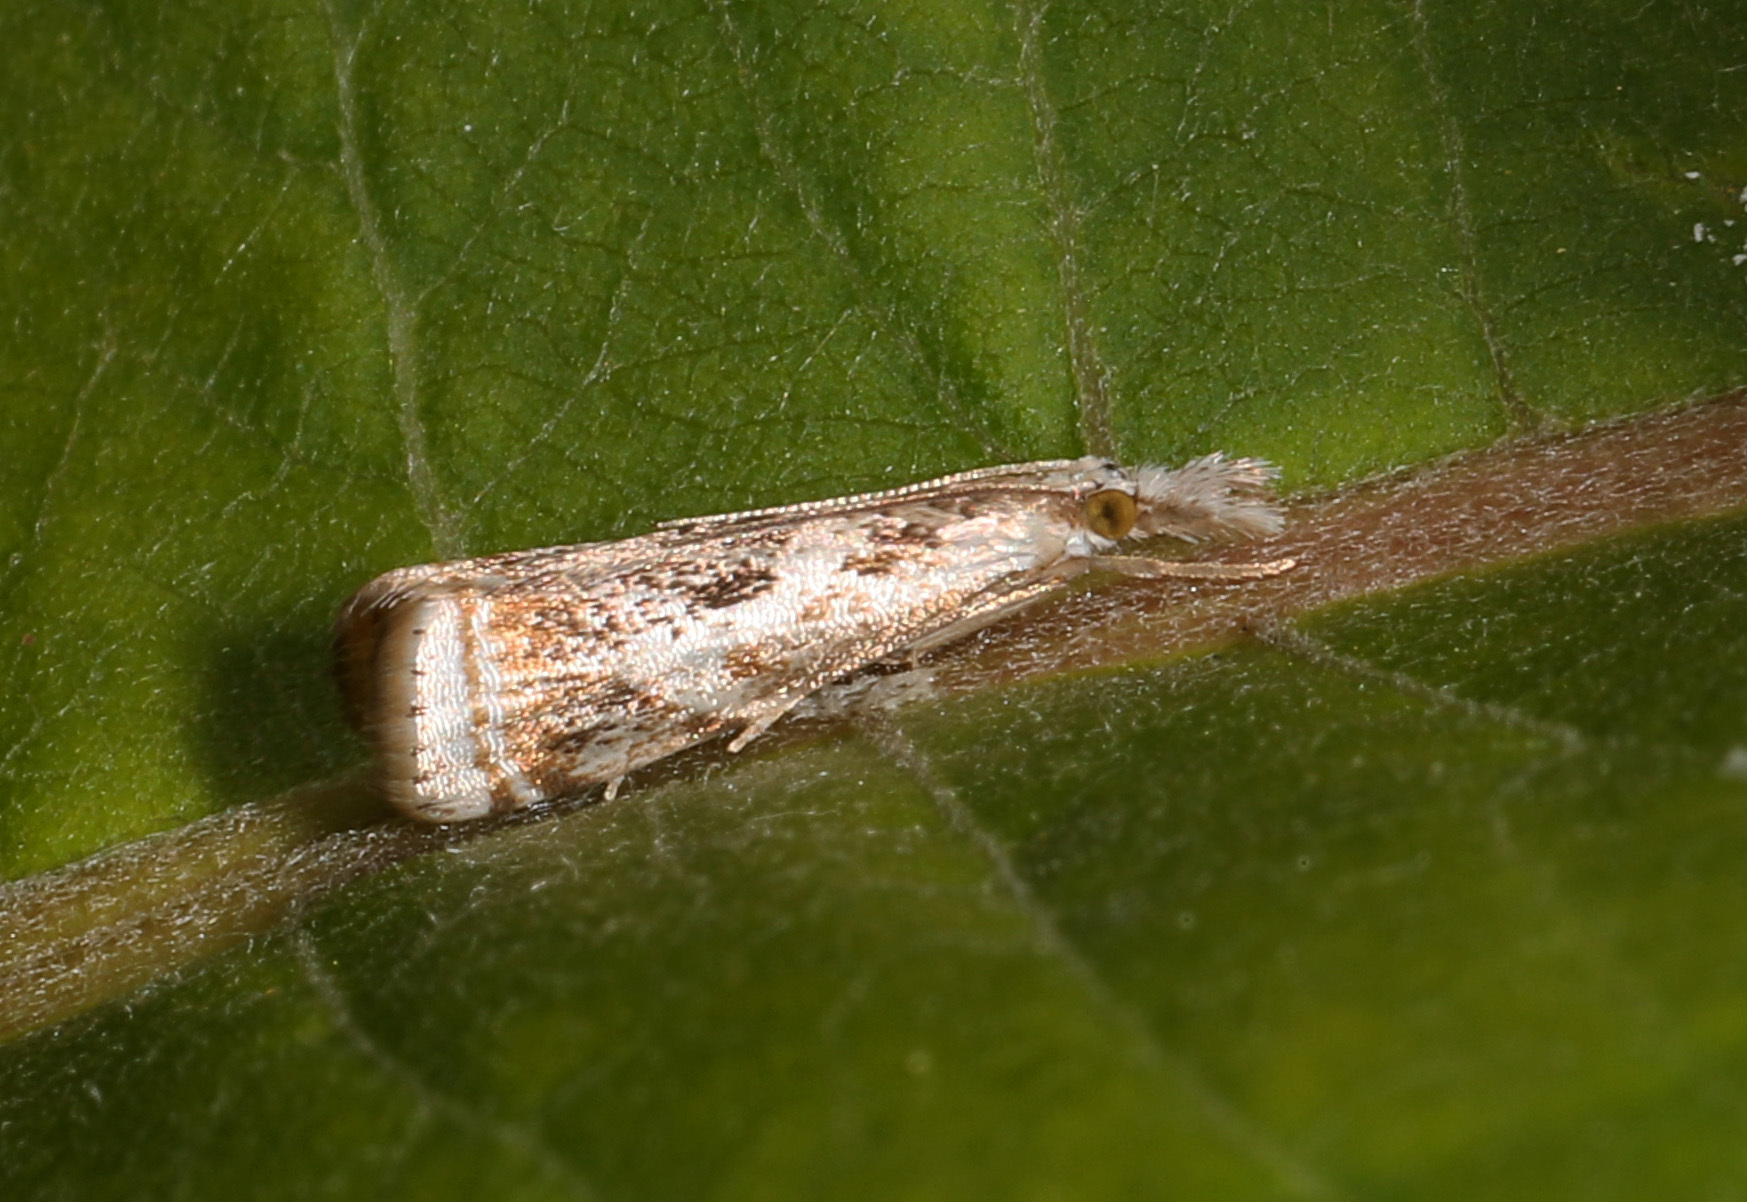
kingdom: Animalia
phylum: Arthropoda
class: Insecta
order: Lepidoptera
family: Crambidae
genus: Microcrambus
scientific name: Microcrambus elegans
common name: Elegant grass-veneer
